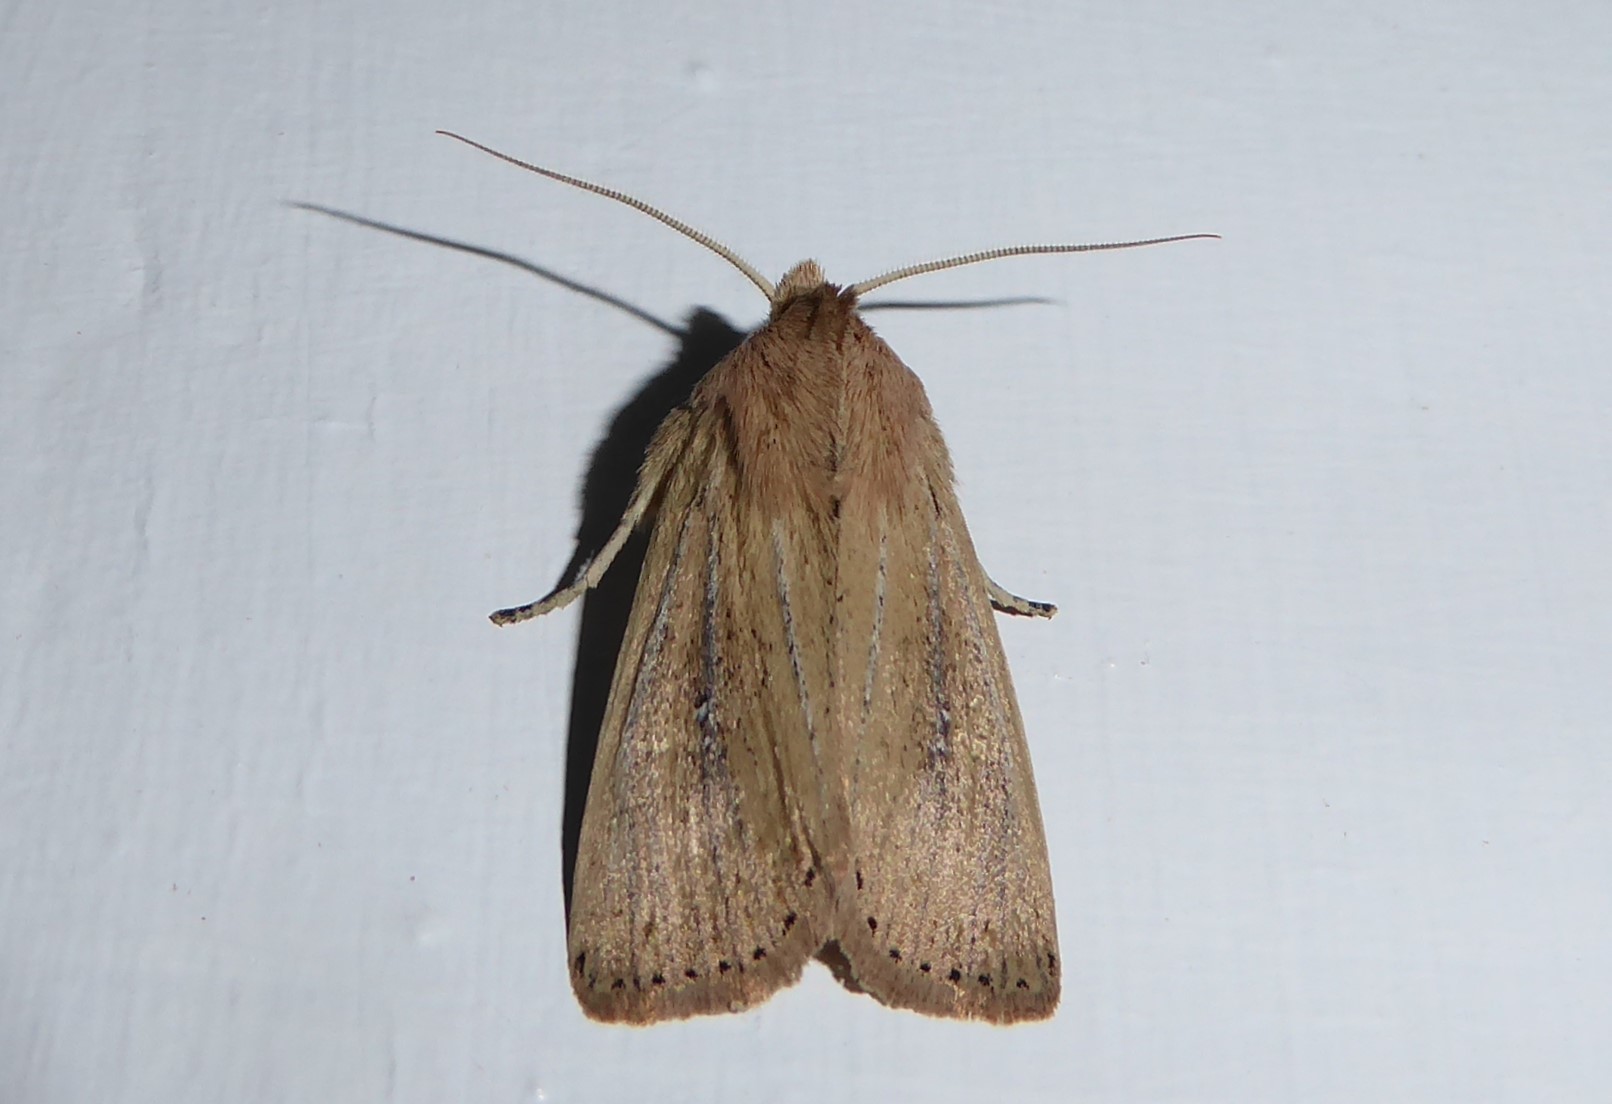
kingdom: Animalia
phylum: Arthropoda
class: Insecta
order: Lepidoptera
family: Noctuidae
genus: Ichneutica
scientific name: Ichneutica arotis
